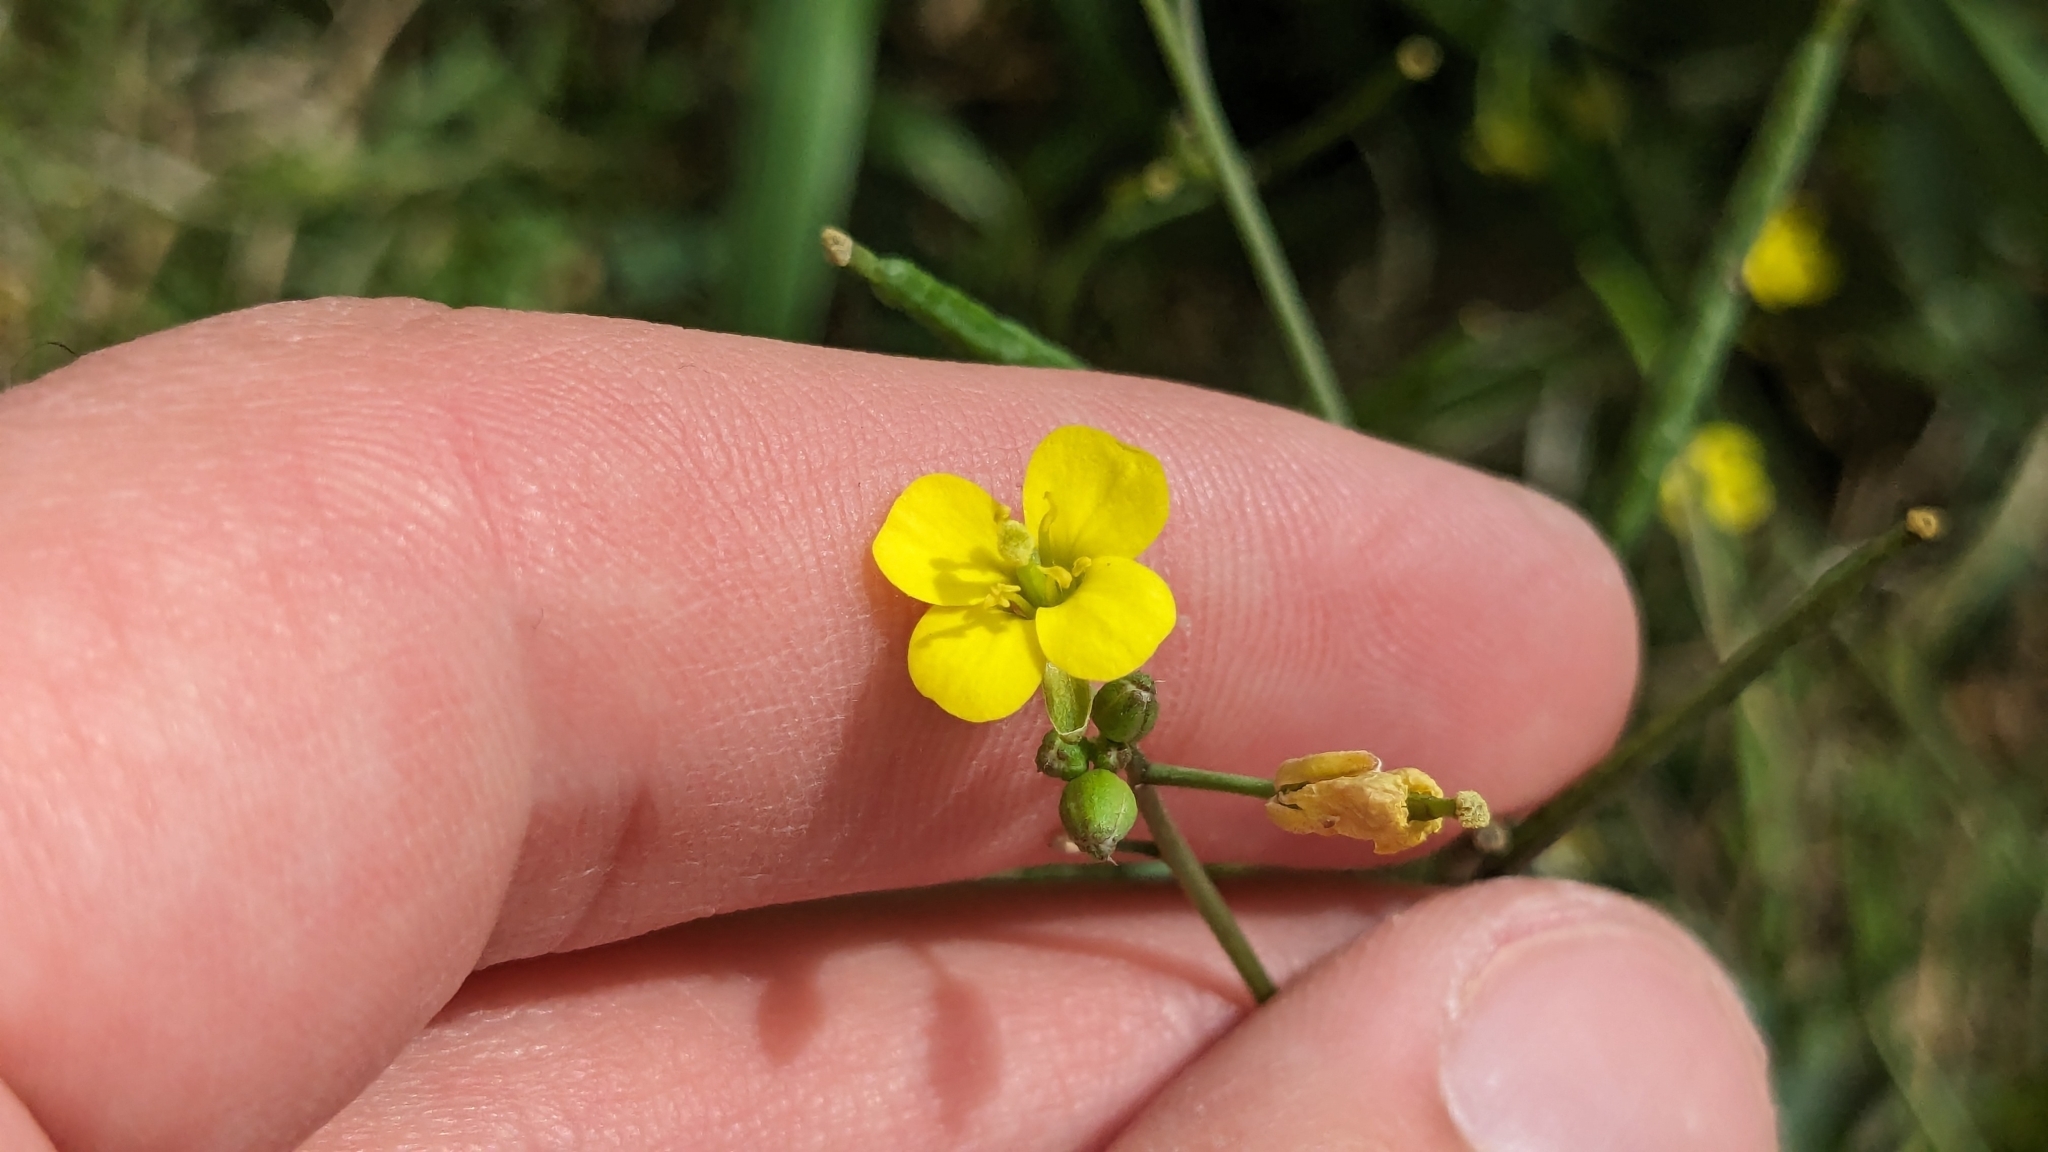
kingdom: Plantae
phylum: Tracheophyta
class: Magnoliopsida
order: Brassicales
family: Brassicaceae
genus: Diplotaxis
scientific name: Diplotaxis muralis
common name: Annual wall-rocket
